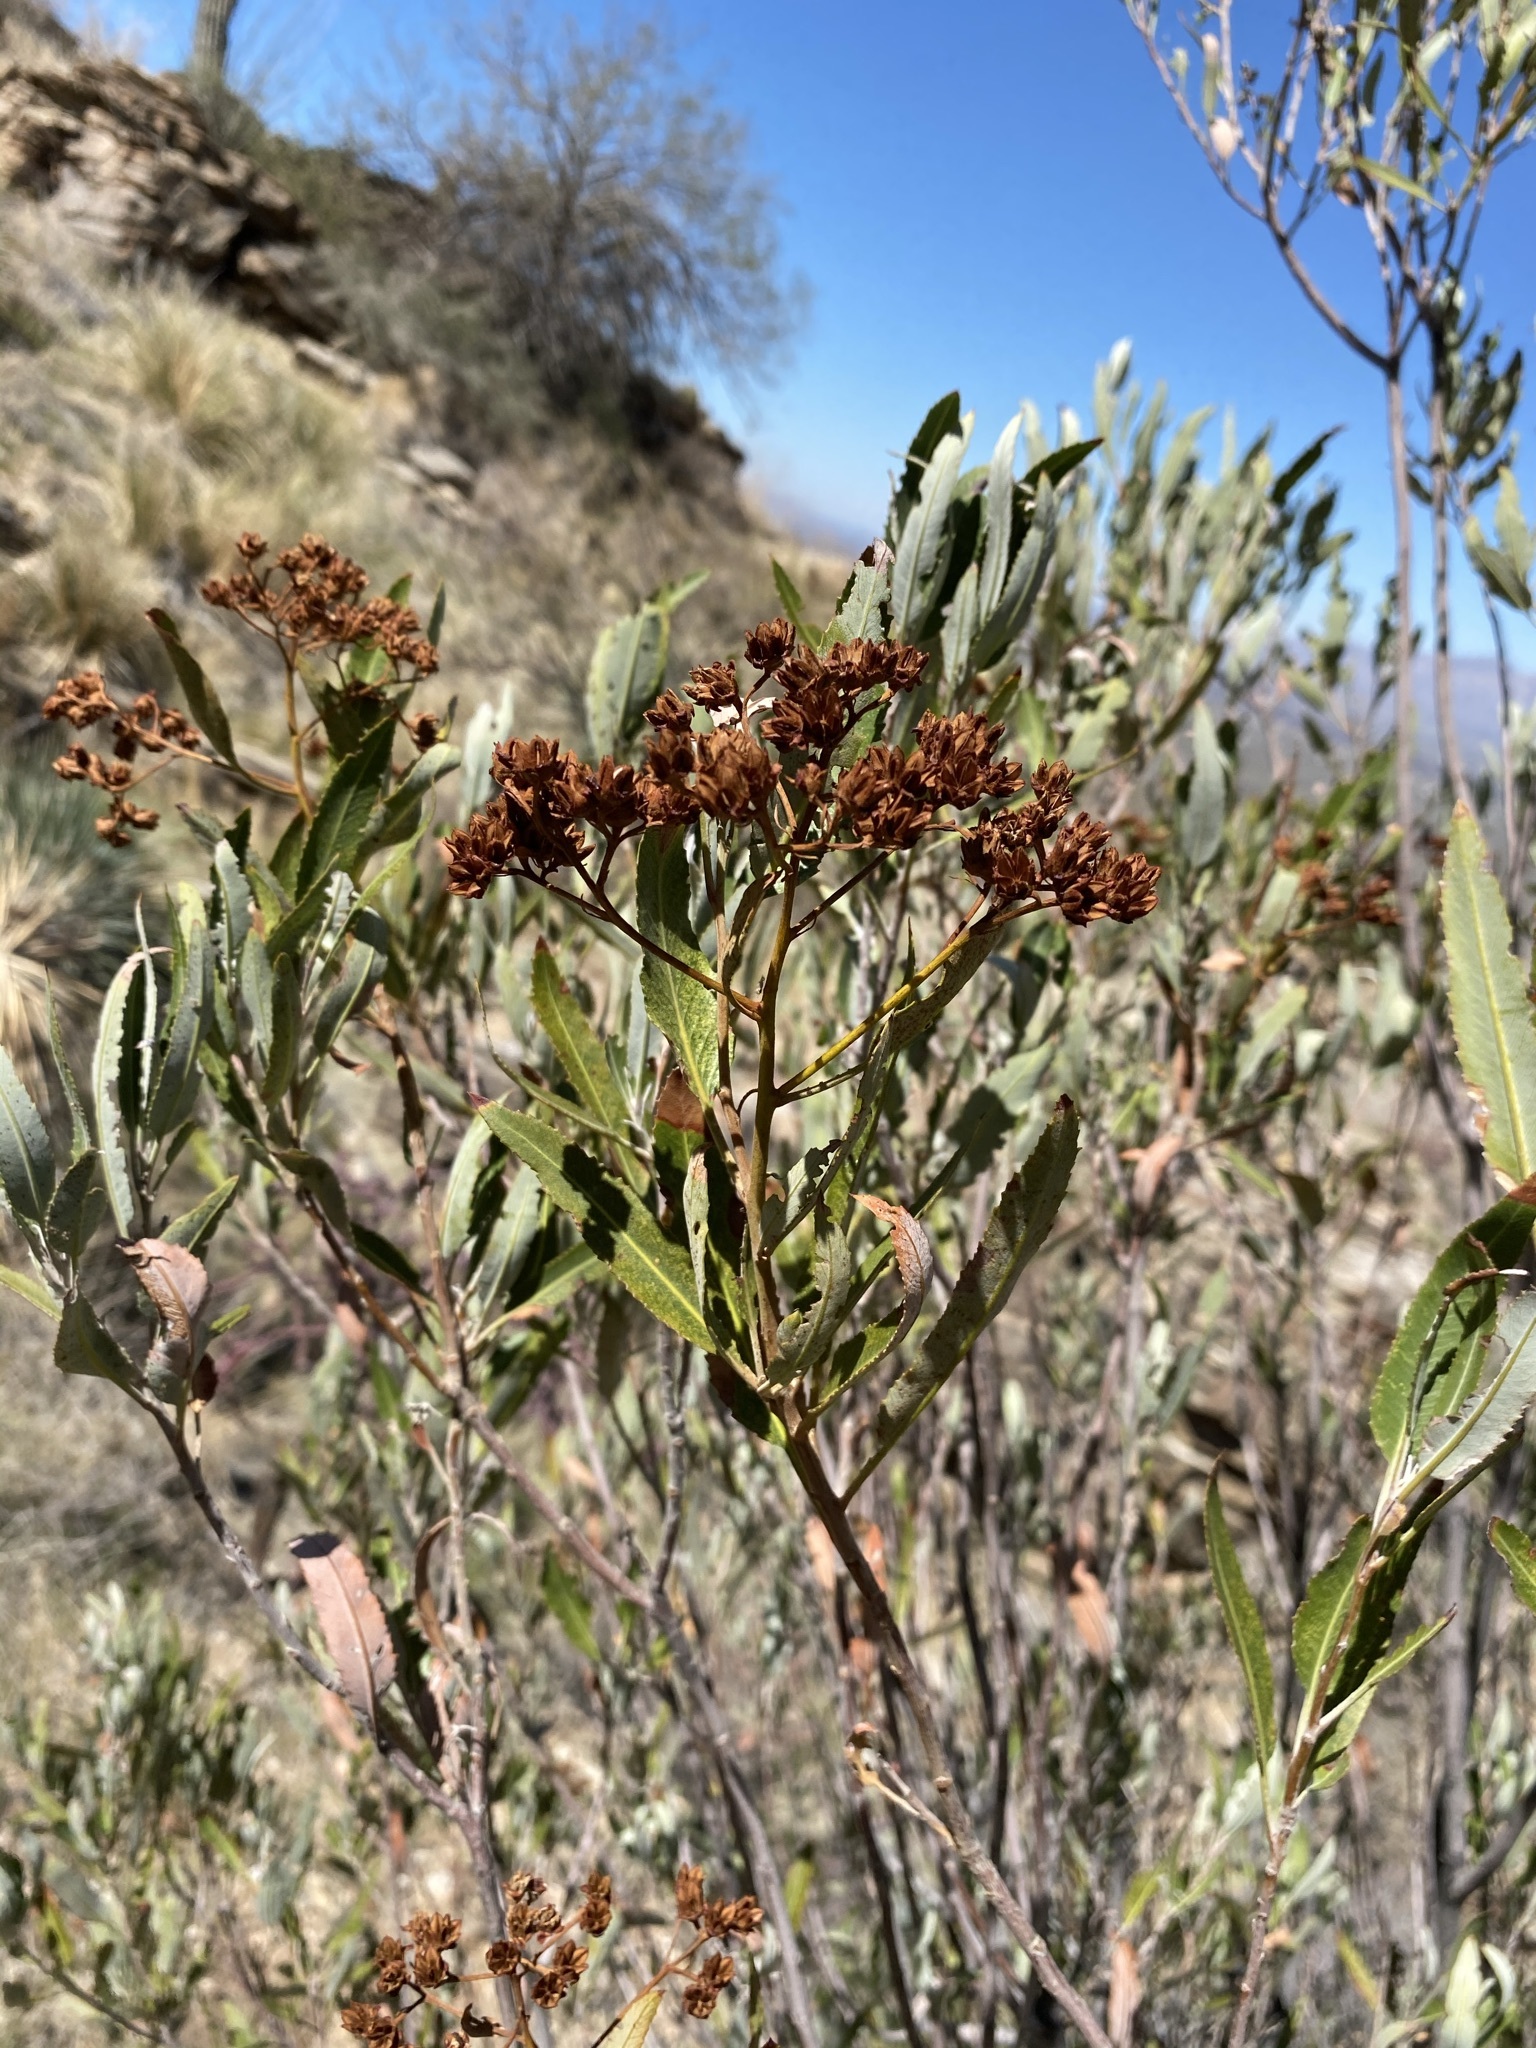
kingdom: Plantae
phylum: Tracheophyta
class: Magnoliopsida
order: Rosales
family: Rosaceae
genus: Vauquelinia
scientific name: Vauquelinia californica
